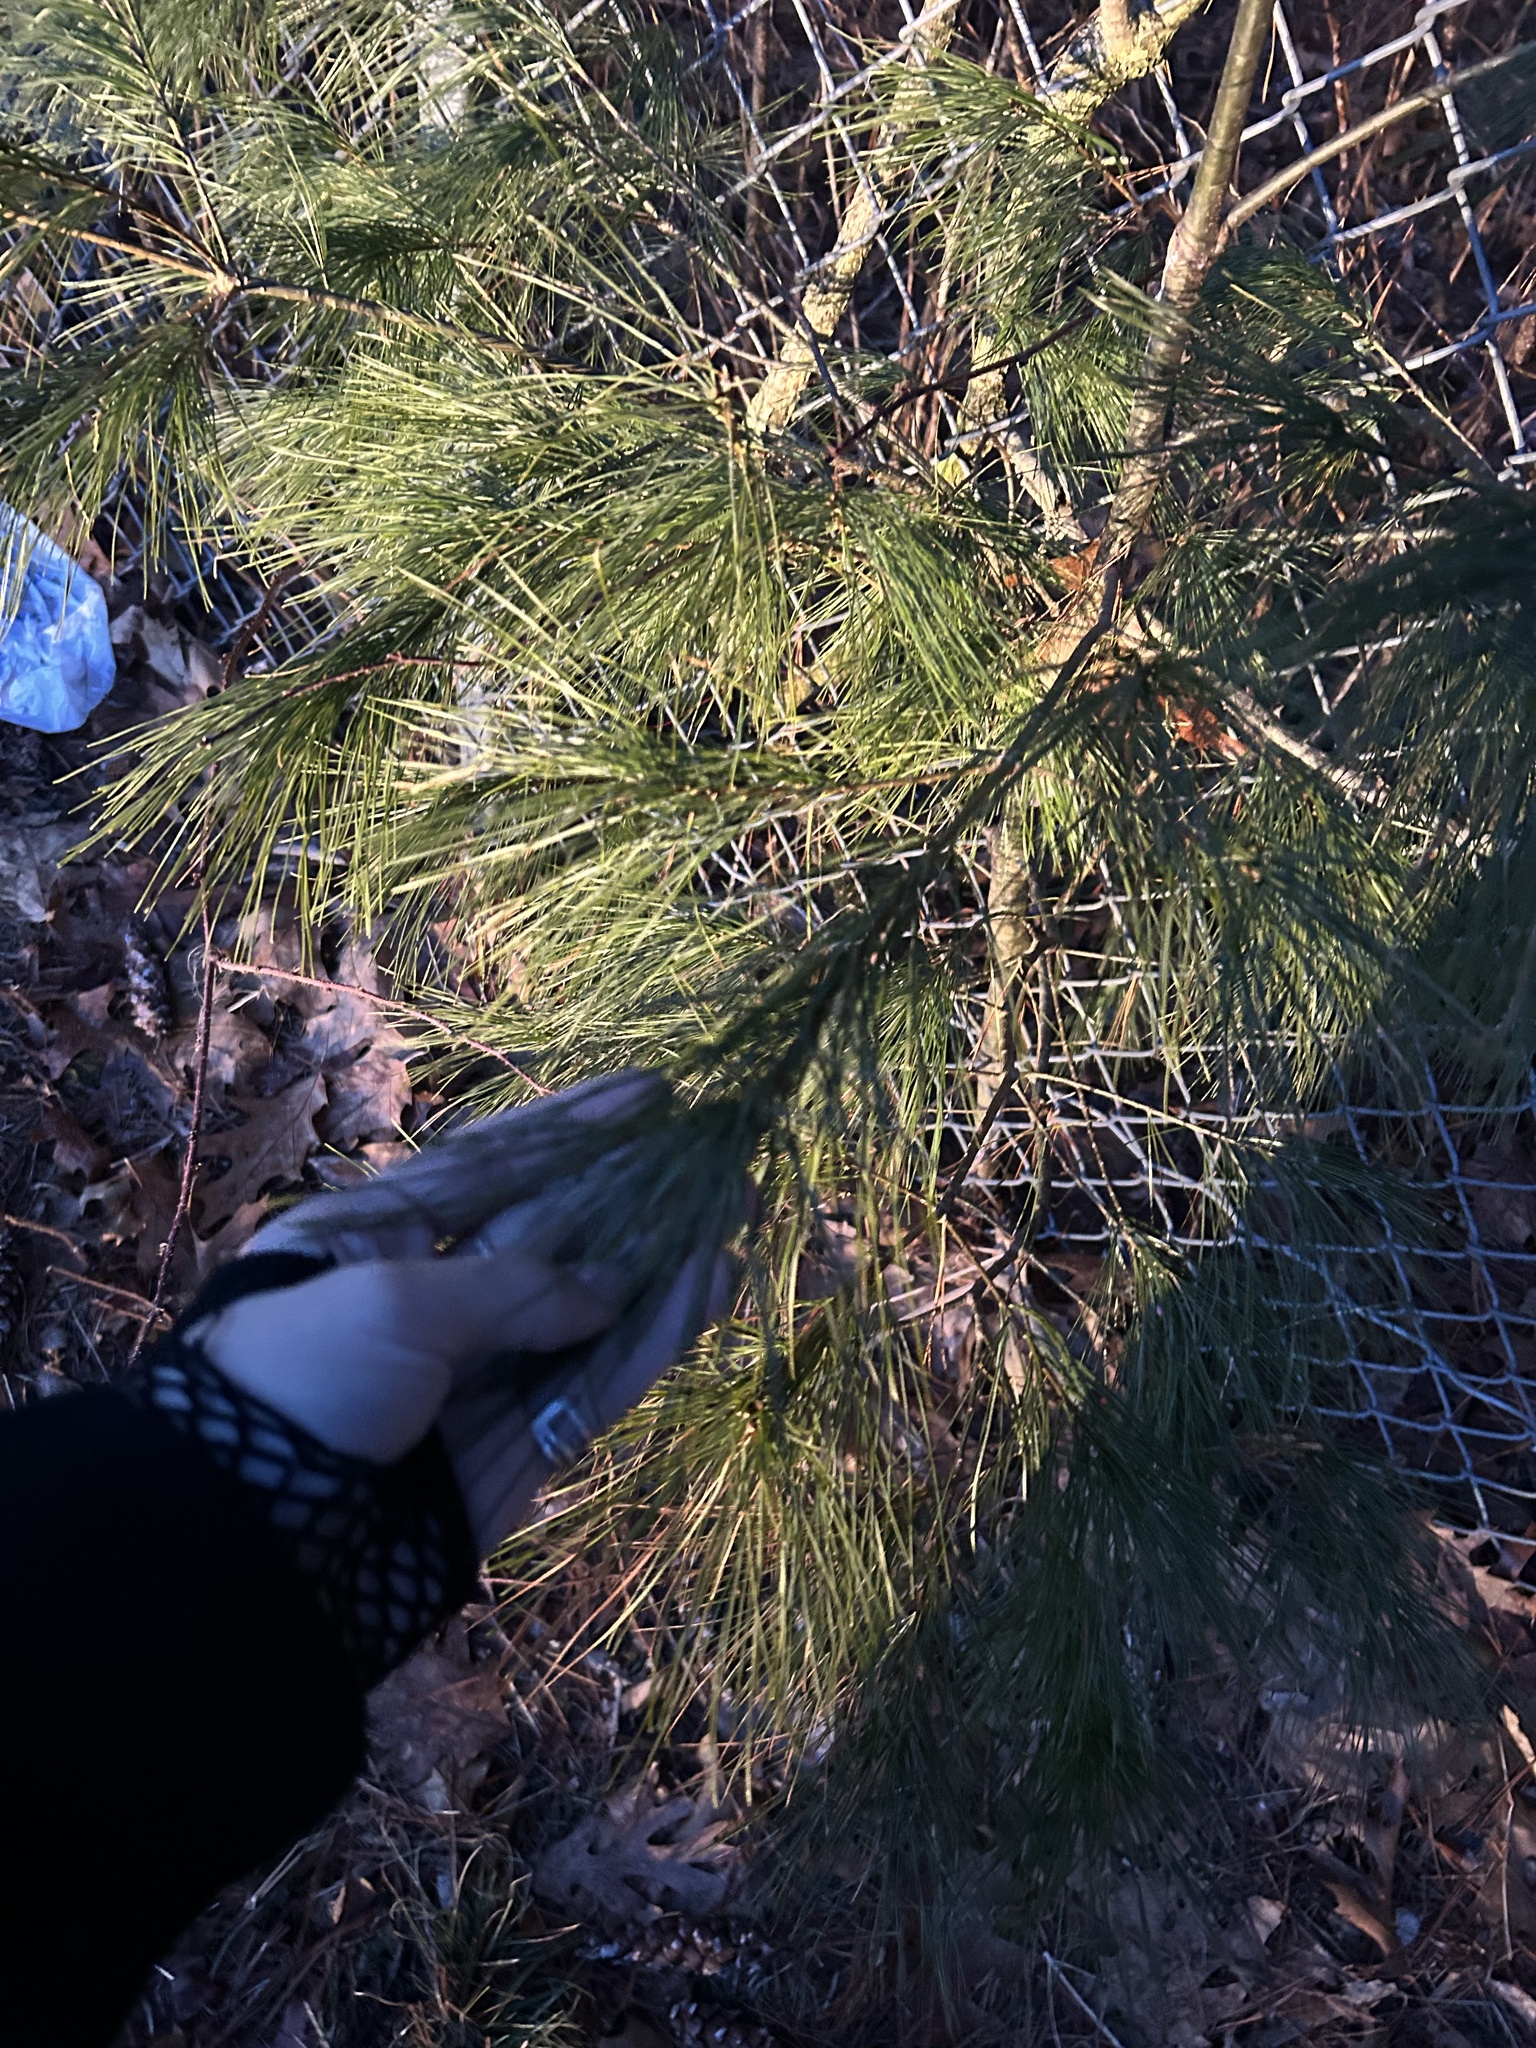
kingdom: Plantae
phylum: Tracheophyta
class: Pinopsida
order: Pinales
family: Pinaceae
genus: Pinus
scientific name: Pinus strobus
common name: Weymouth pine
